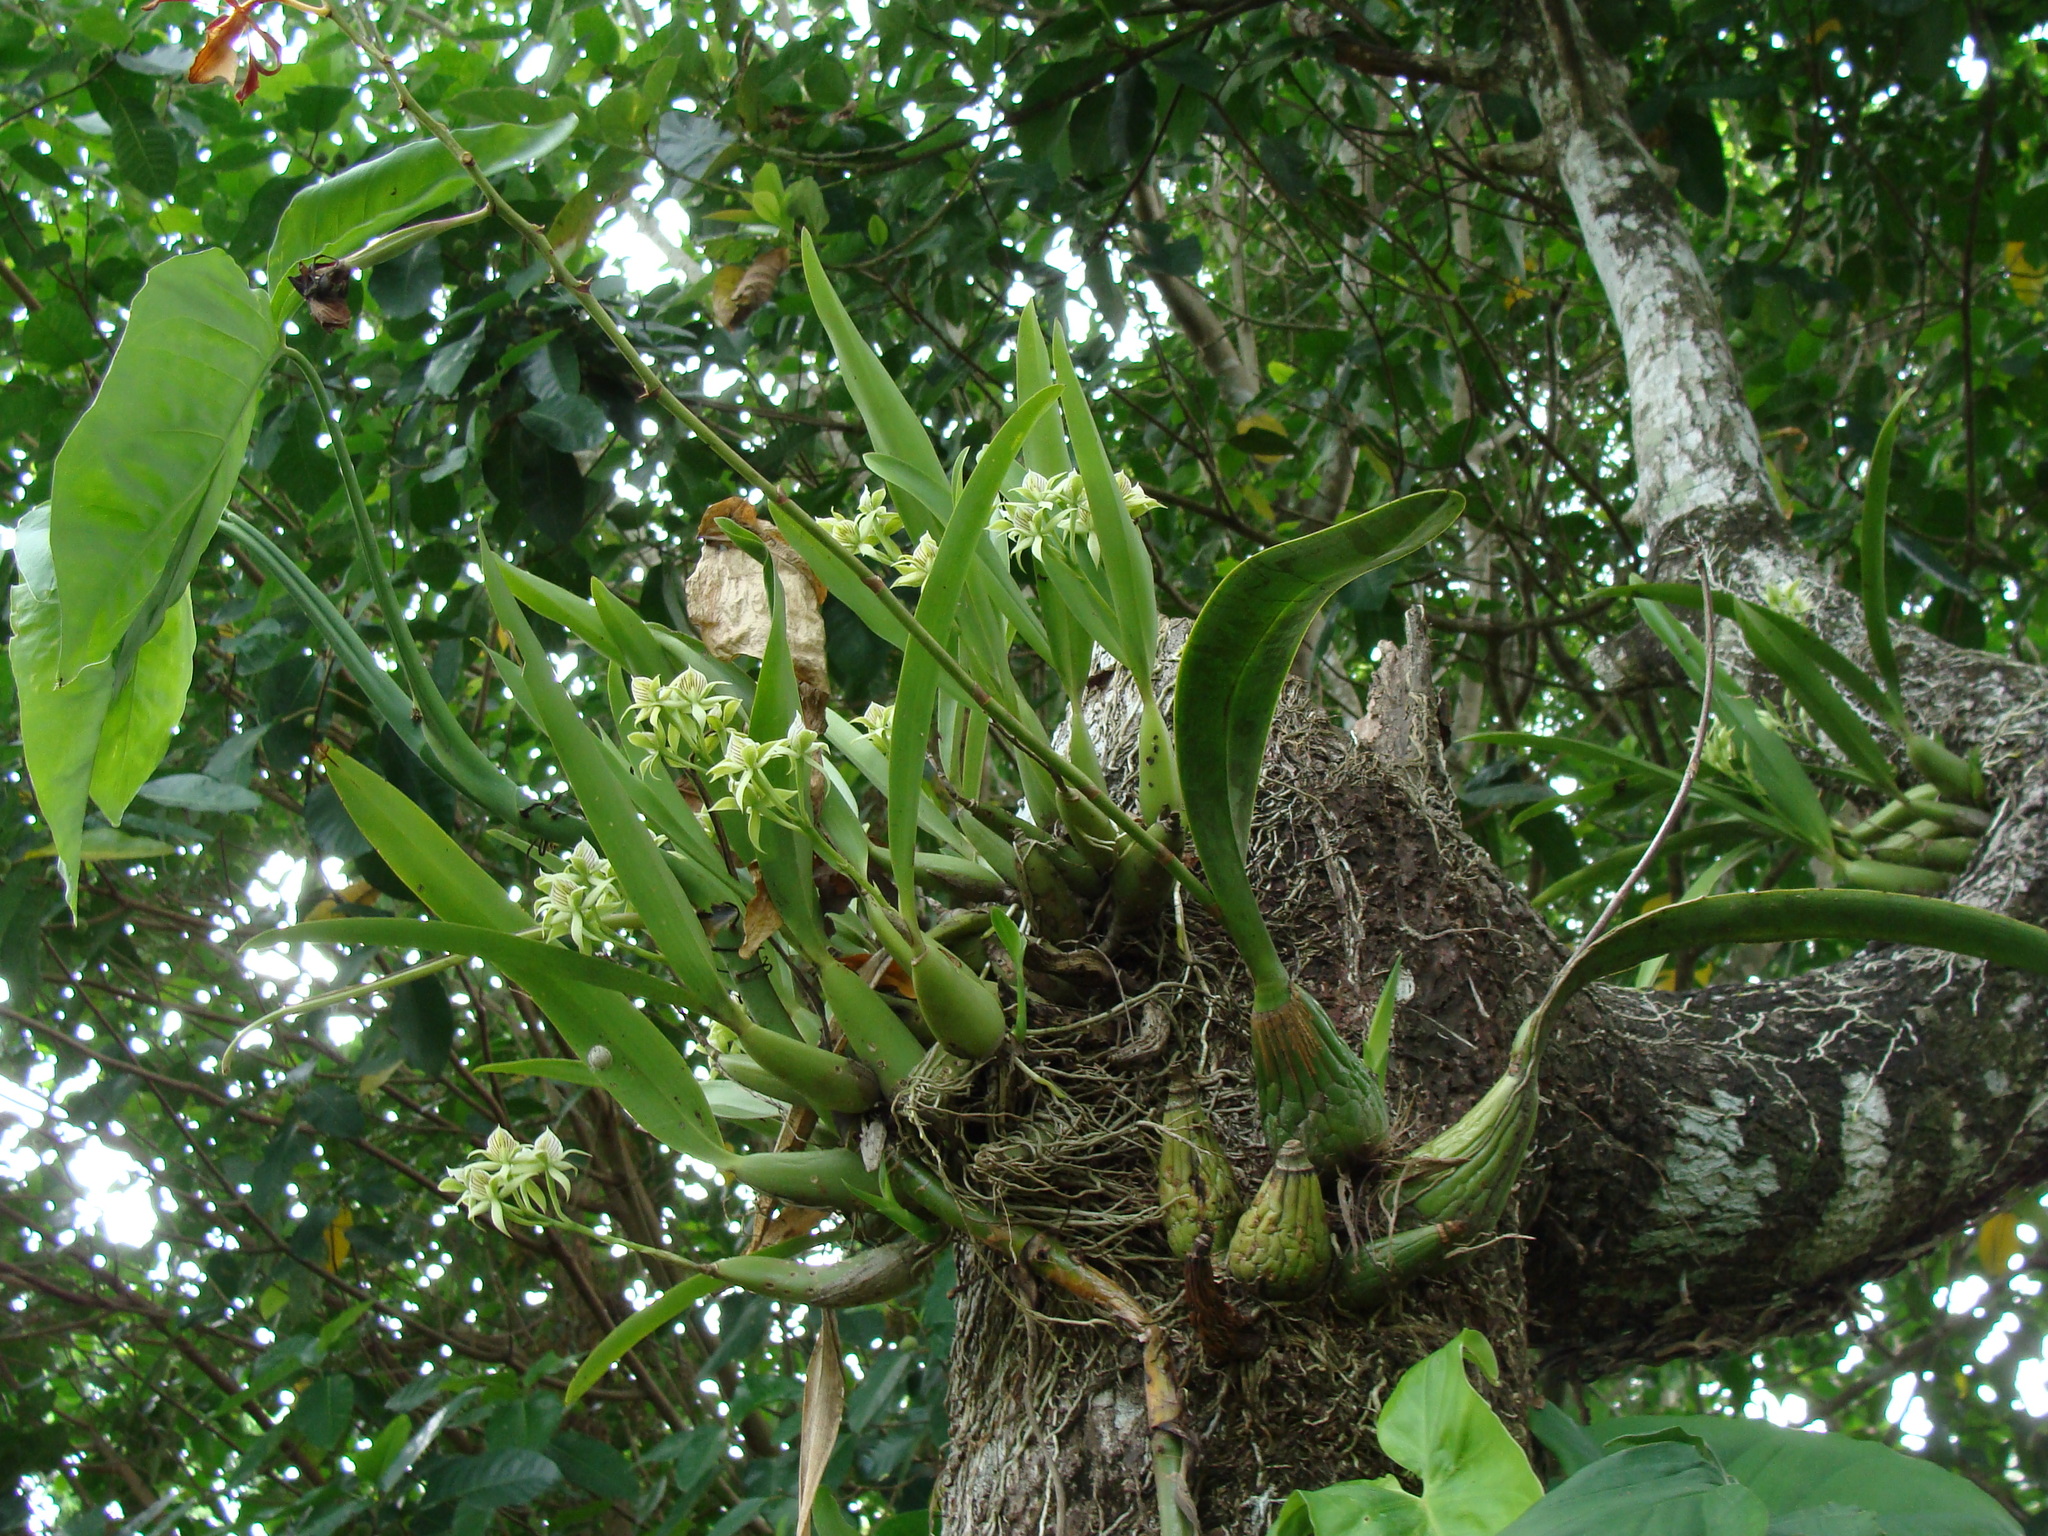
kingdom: Plantae
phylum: Tracheophyta
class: Liliopsida
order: Asparagales
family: Orchidaceae
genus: Prosthechea
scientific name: Prosthechea chacaoensis
